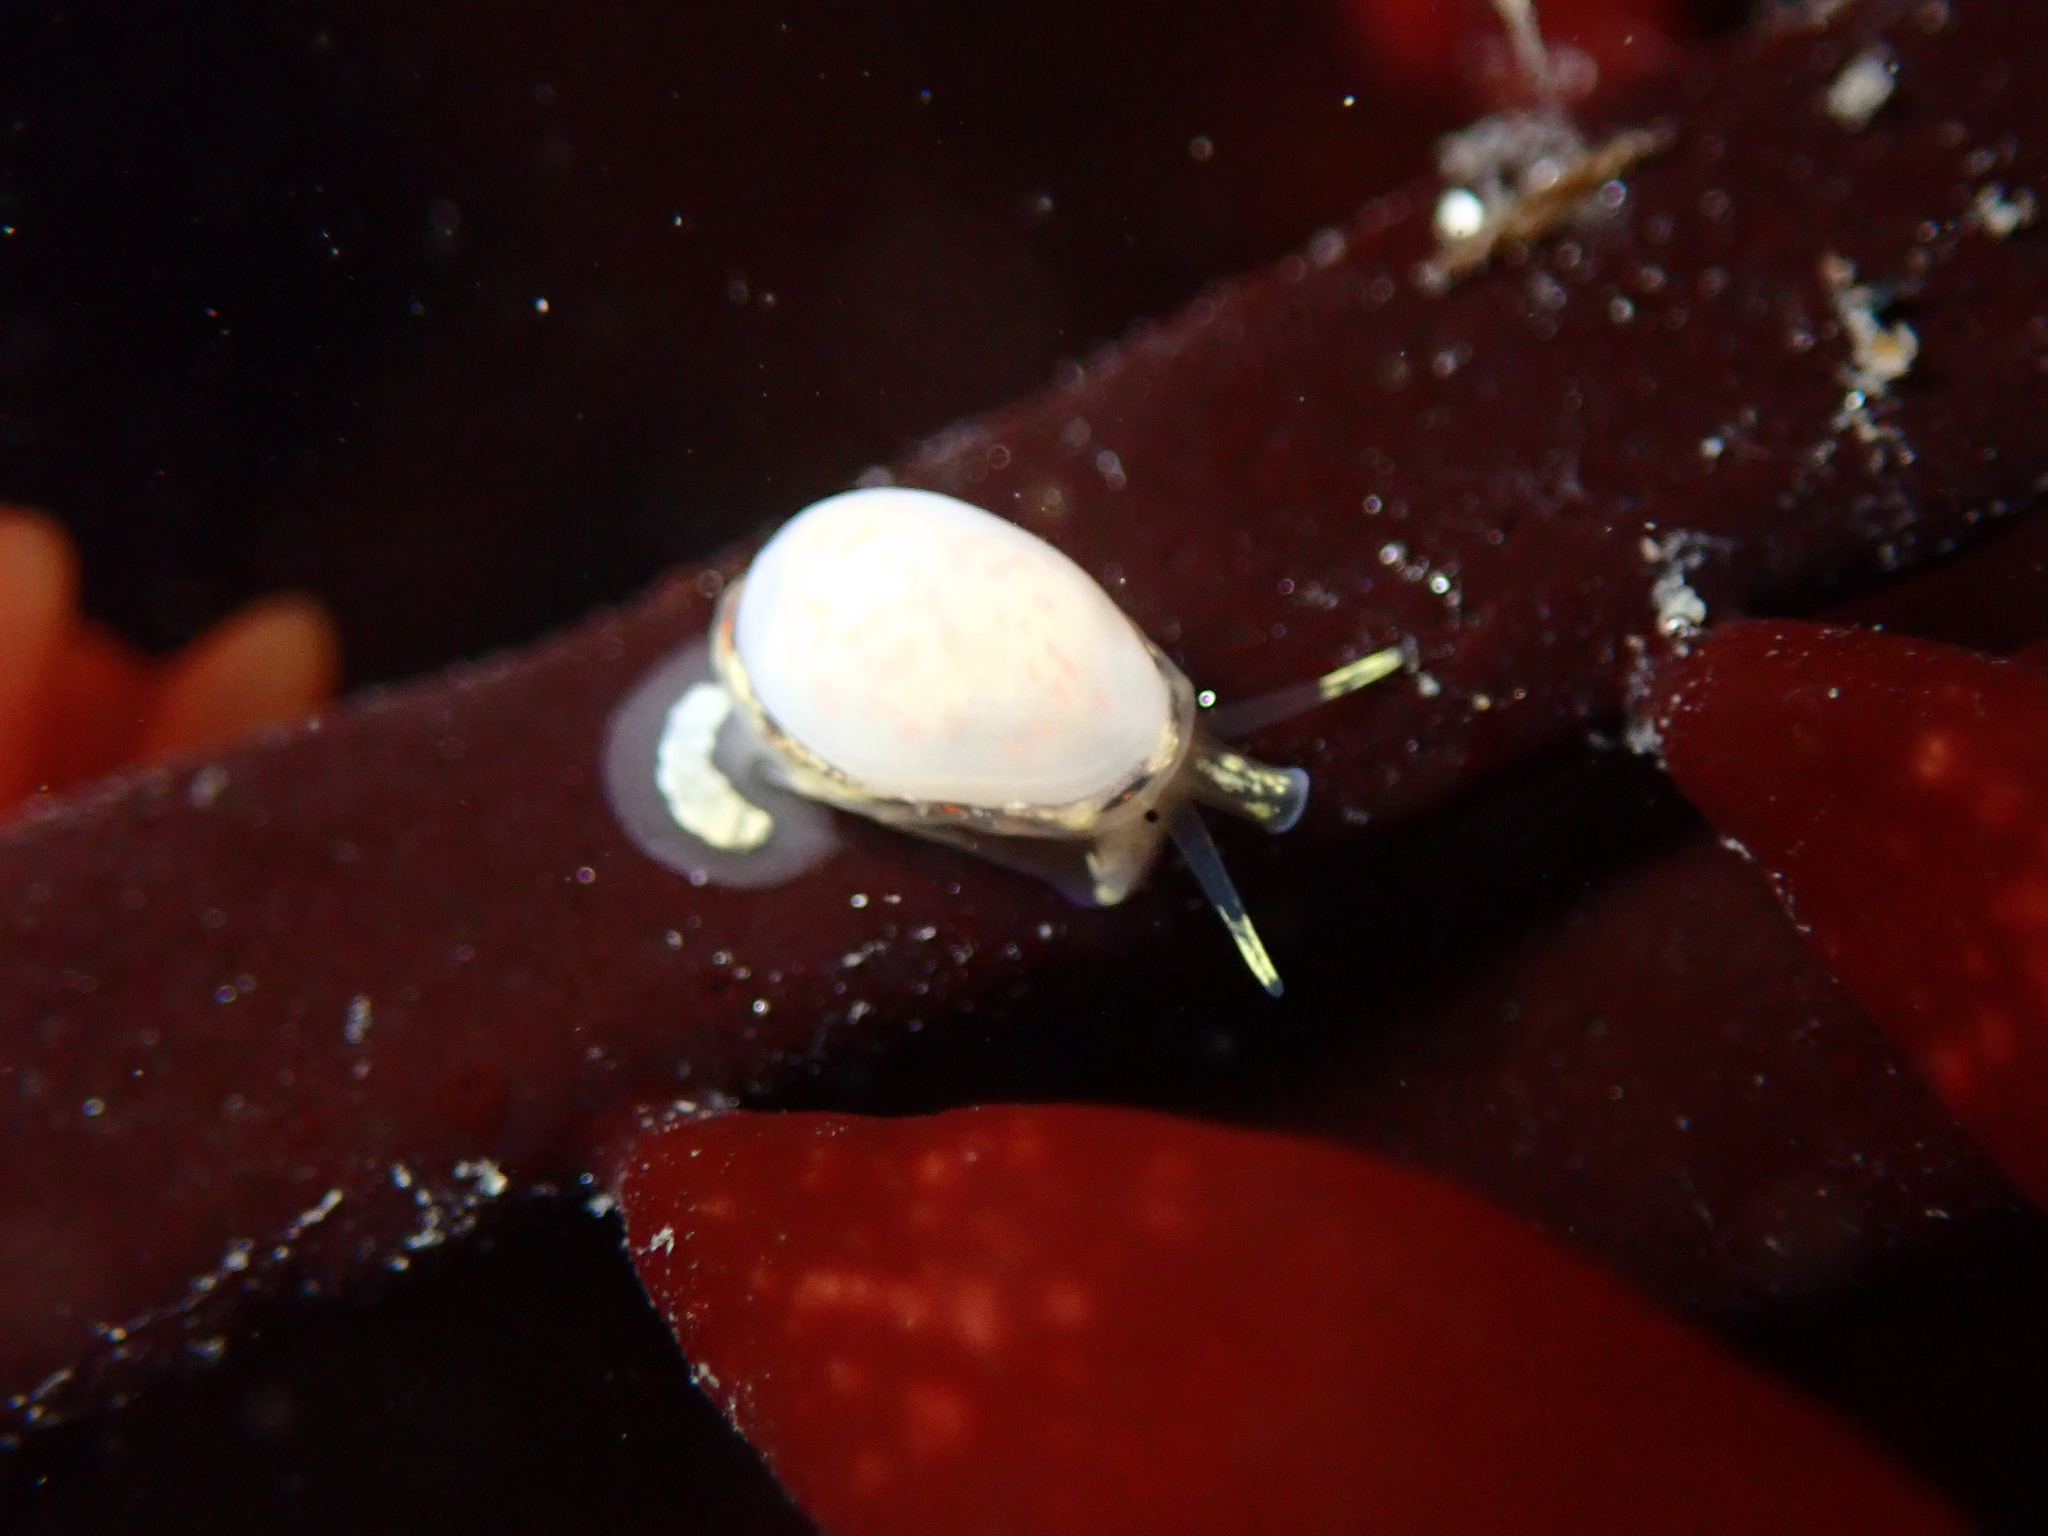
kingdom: Animalia
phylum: Mollusca
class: Gastropoda
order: Neogastropoda
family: Granulinidae
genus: Granulina
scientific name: Granulina margaritula
